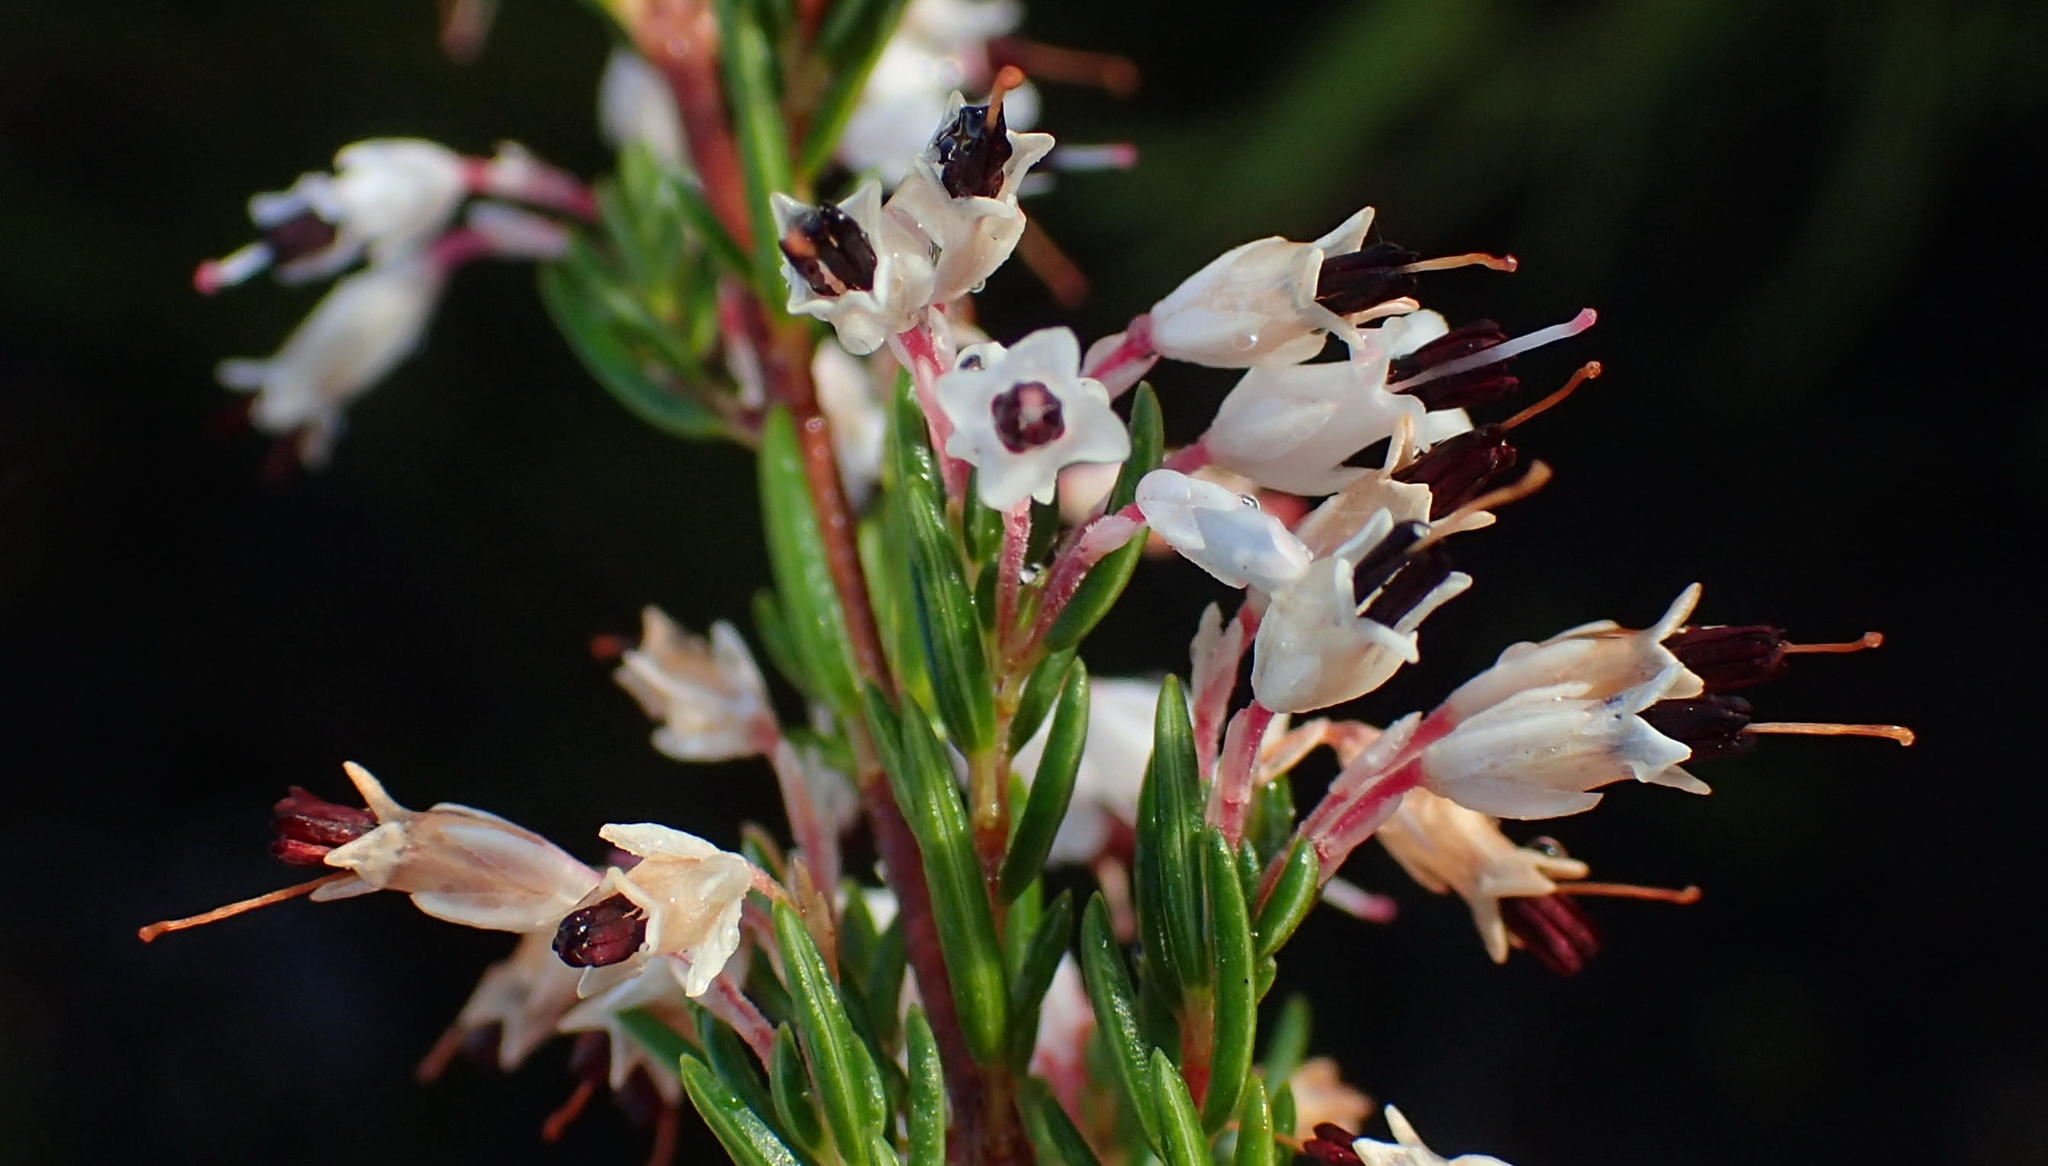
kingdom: Plantae
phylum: Tracheophyta
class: Magnoliopsida
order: Ericales
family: Ericaceae
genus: Erica
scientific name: Erica fuscescens
